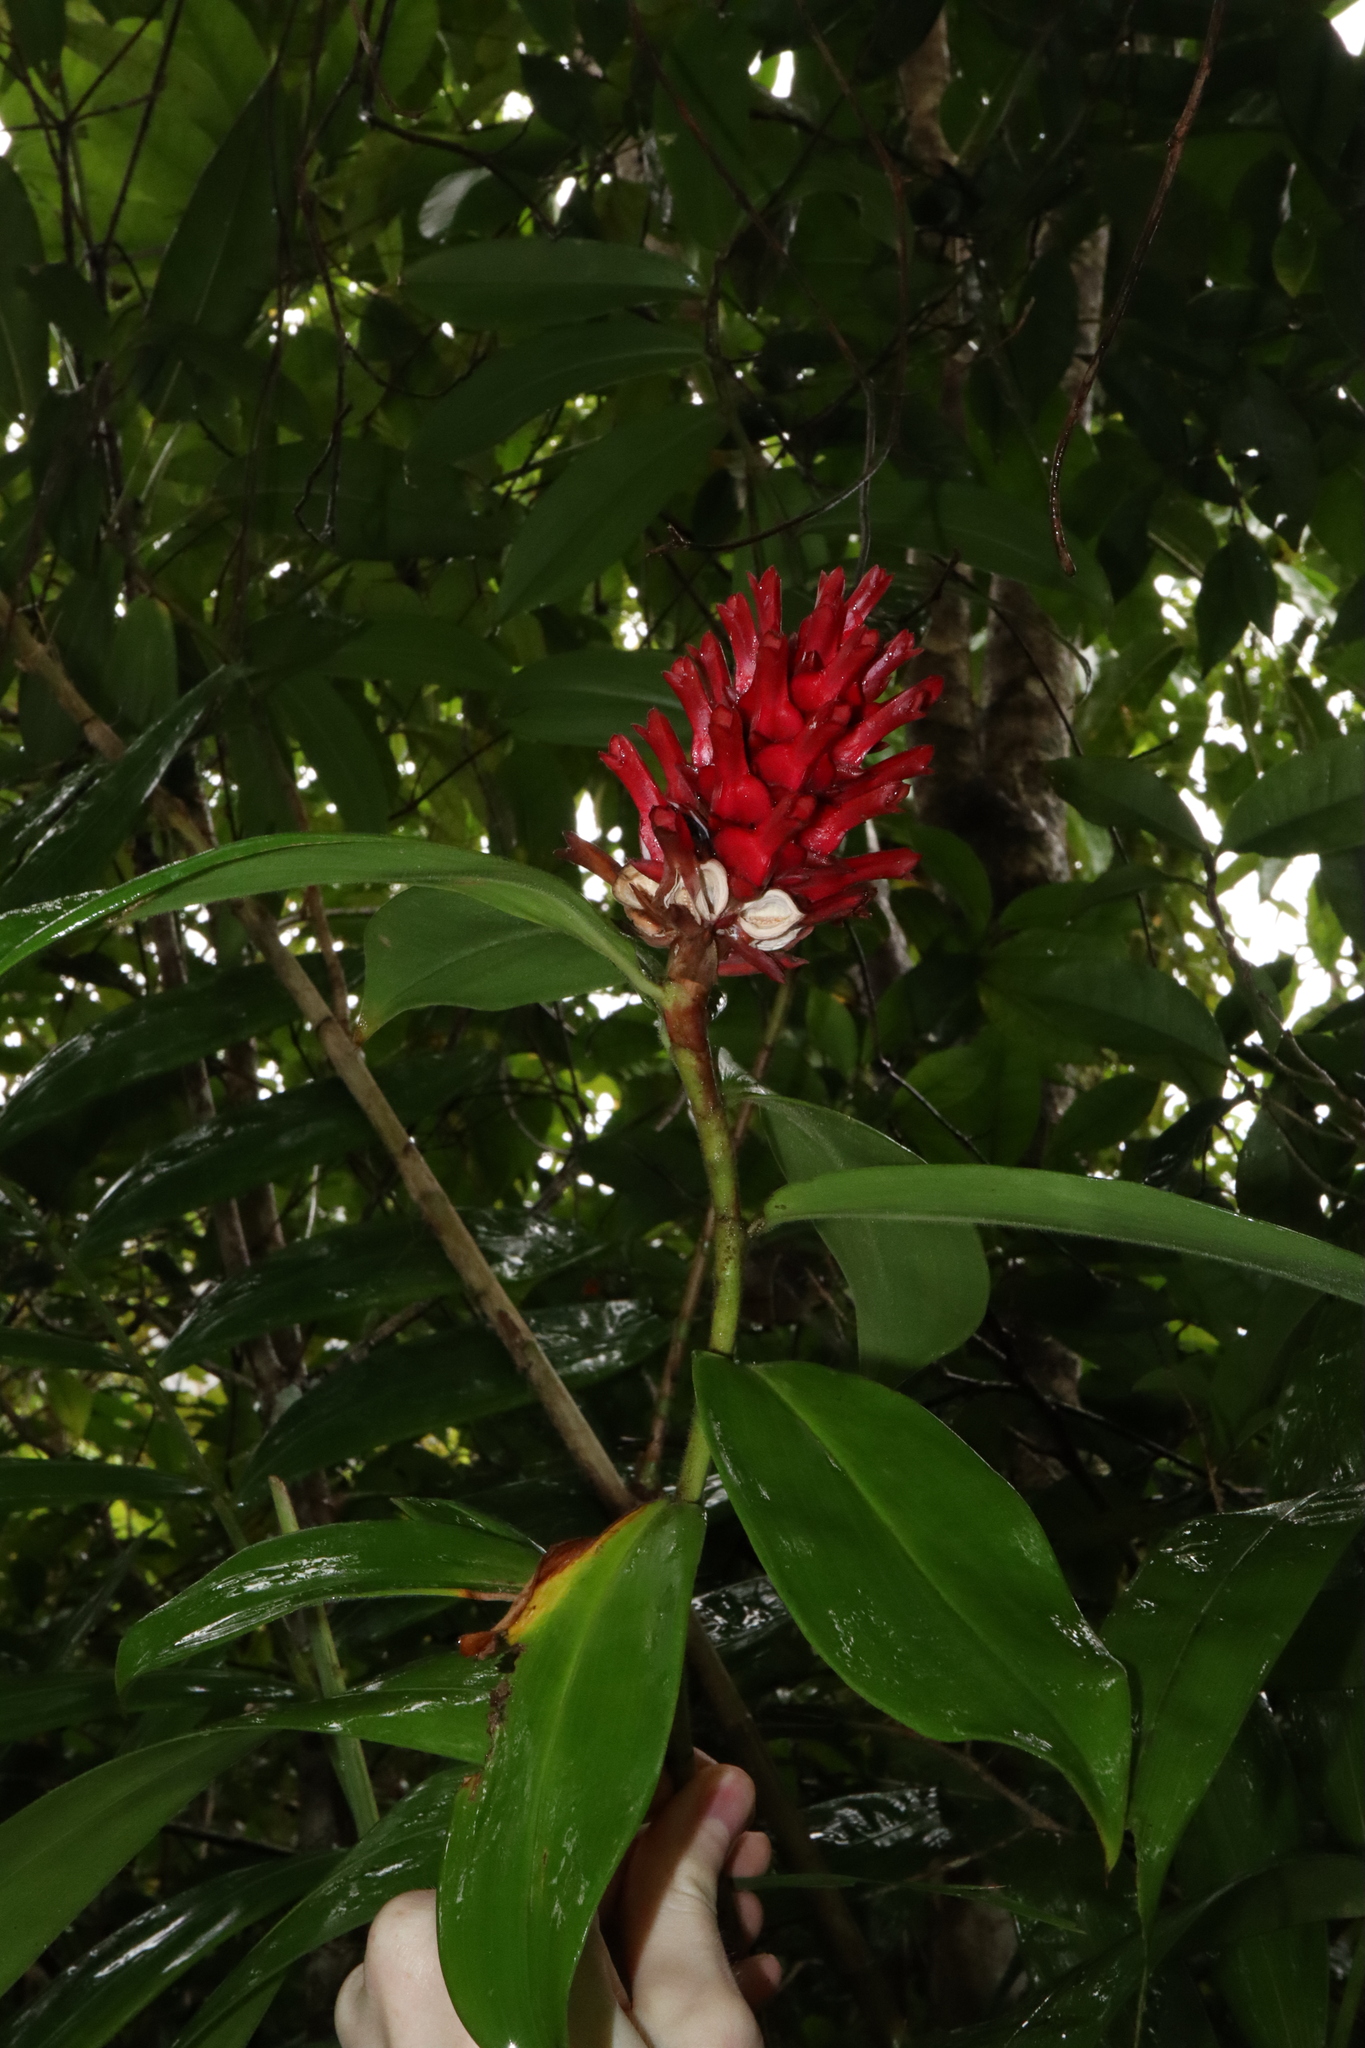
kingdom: Plantae
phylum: Tracheophyta
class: Liliopsida
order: Zingiberales
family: Costaceae
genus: Hellenia
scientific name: Hellenia speciosa
